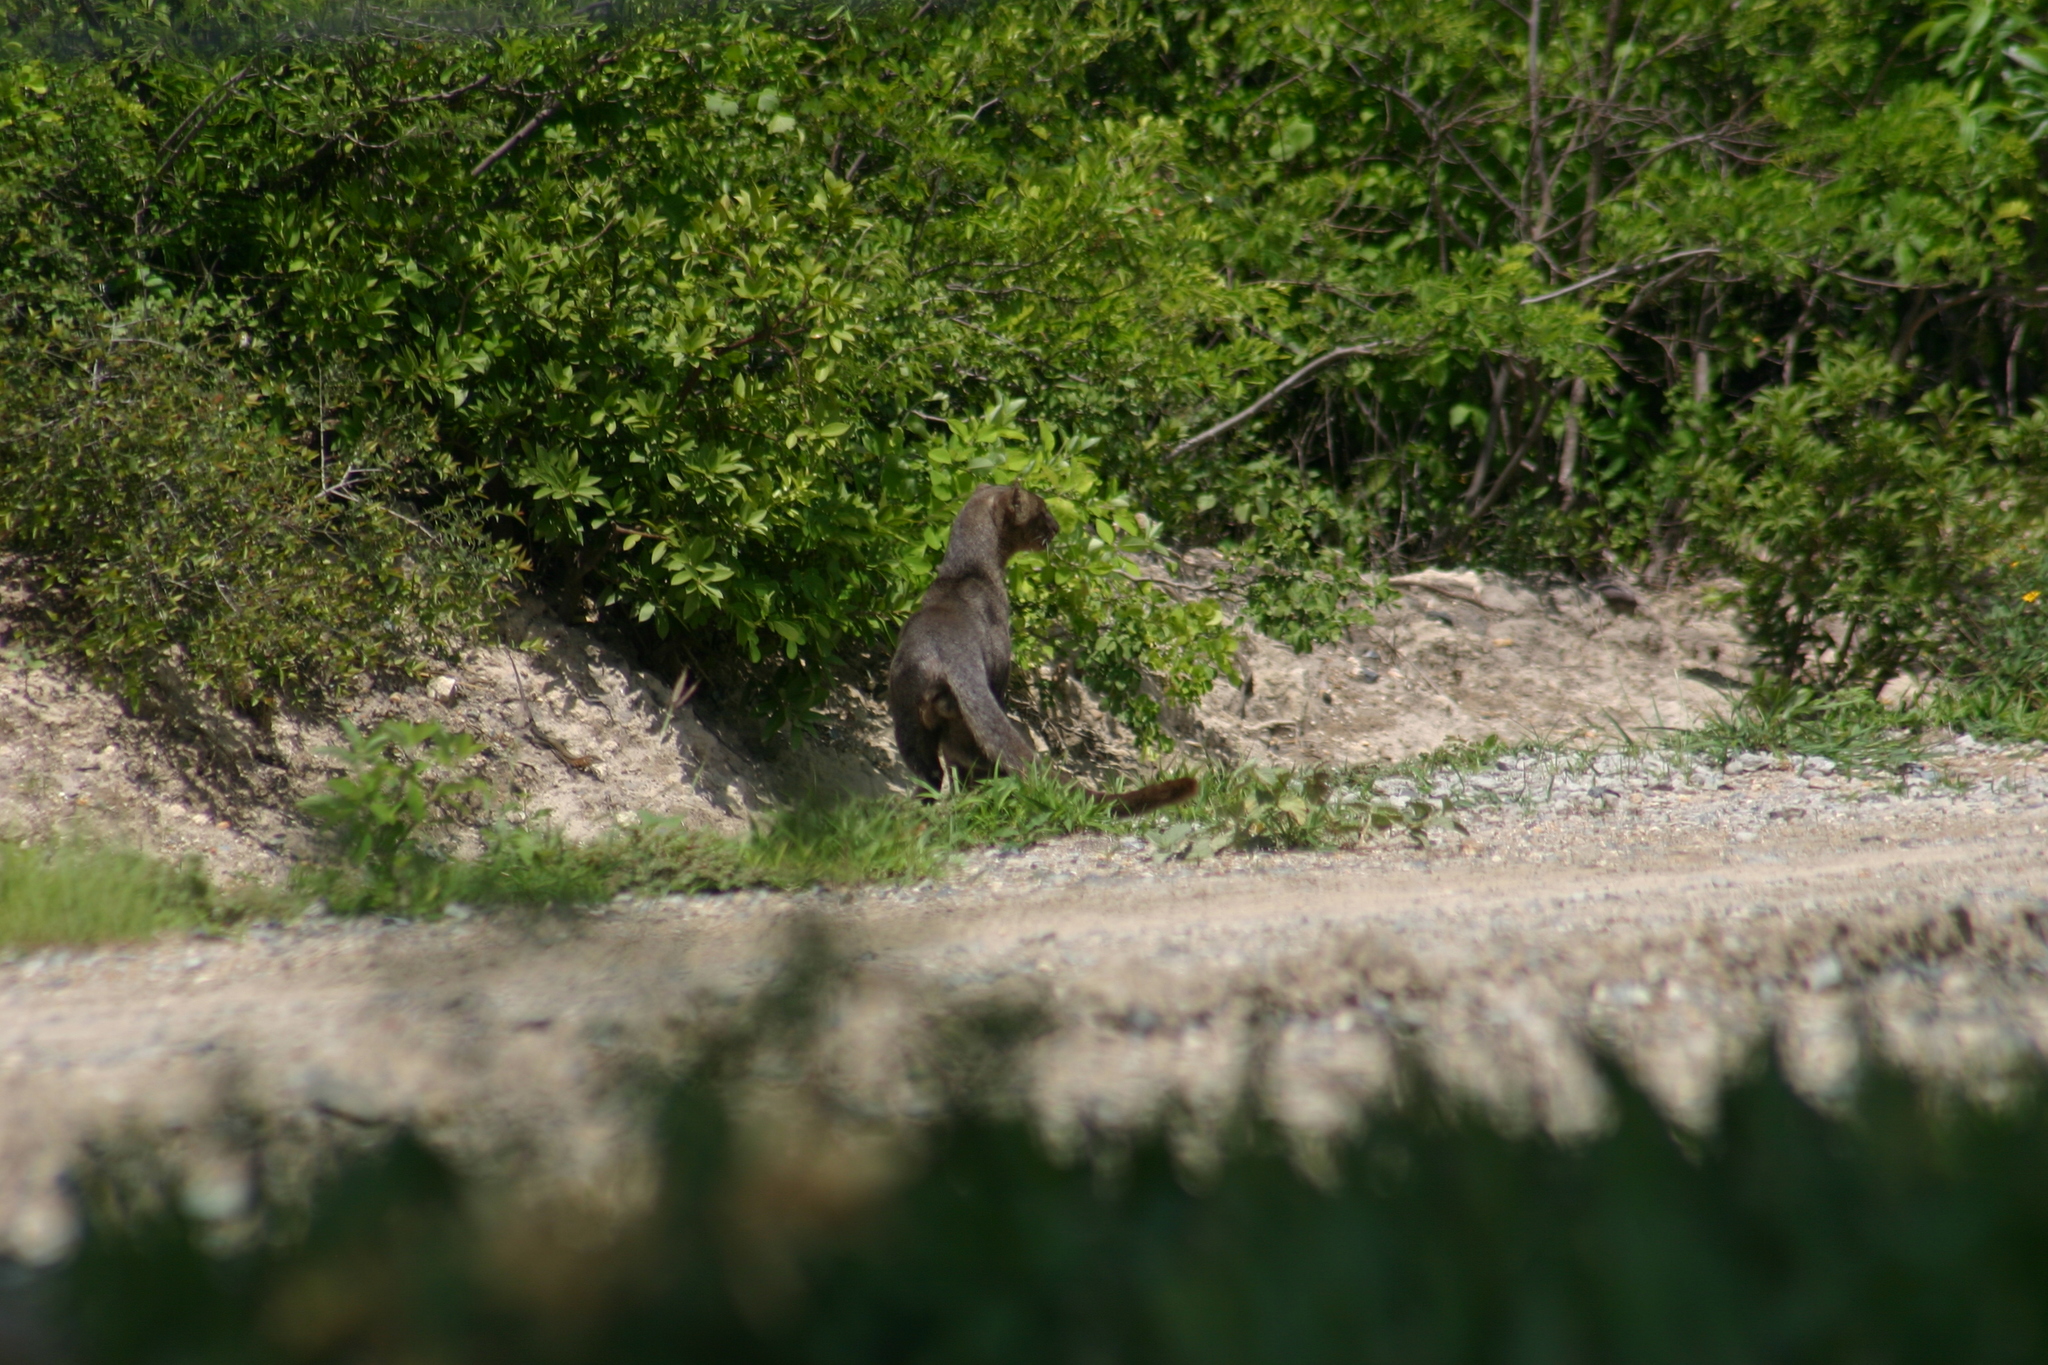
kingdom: Animalia
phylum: Chordata
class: Mammalia
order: Carnivora
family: Felidae
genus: Puma
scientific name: Puma yagouaroundi
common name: Jaguarundi
